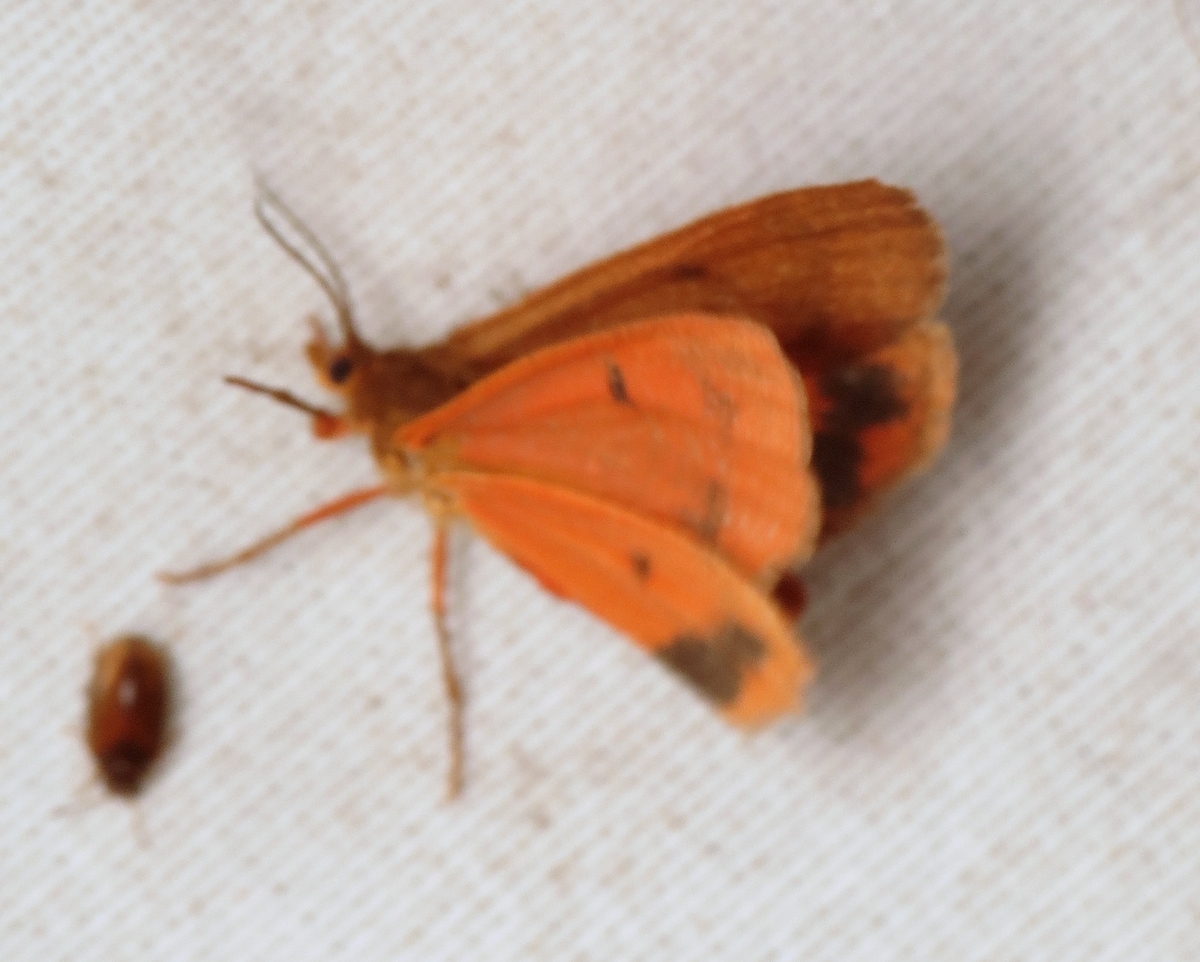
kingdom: Animalia
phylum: Arthropoda
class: Insecta
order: Lepidoptera
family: Erebidae
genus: Virbia
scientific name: Virbia aurantiaca
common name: Orange virbia moth
